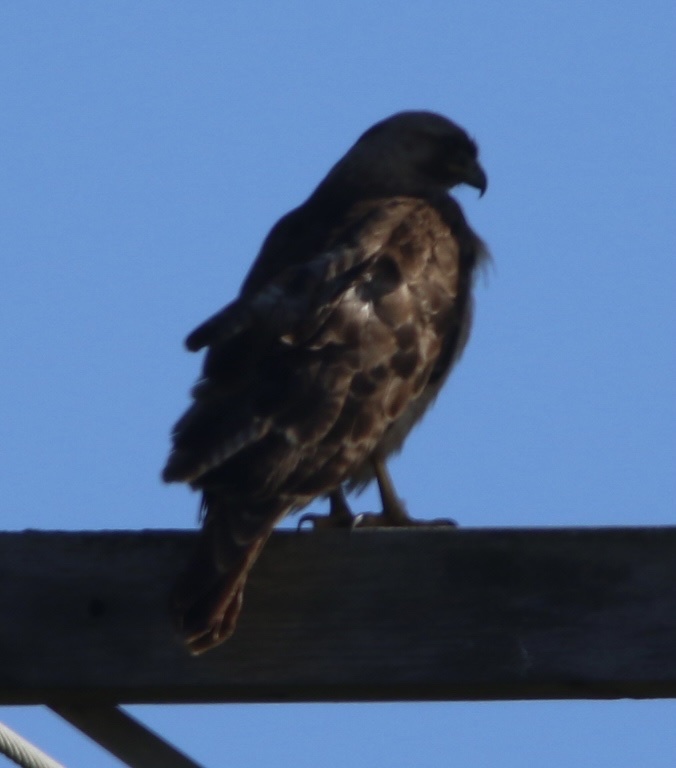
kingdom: Animalia
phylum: Chordata
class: Aves
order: Accipitriformes
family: Accipitridae
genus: Buteo
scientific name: Buteo jamaicensis
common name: Red-tailed hawk
